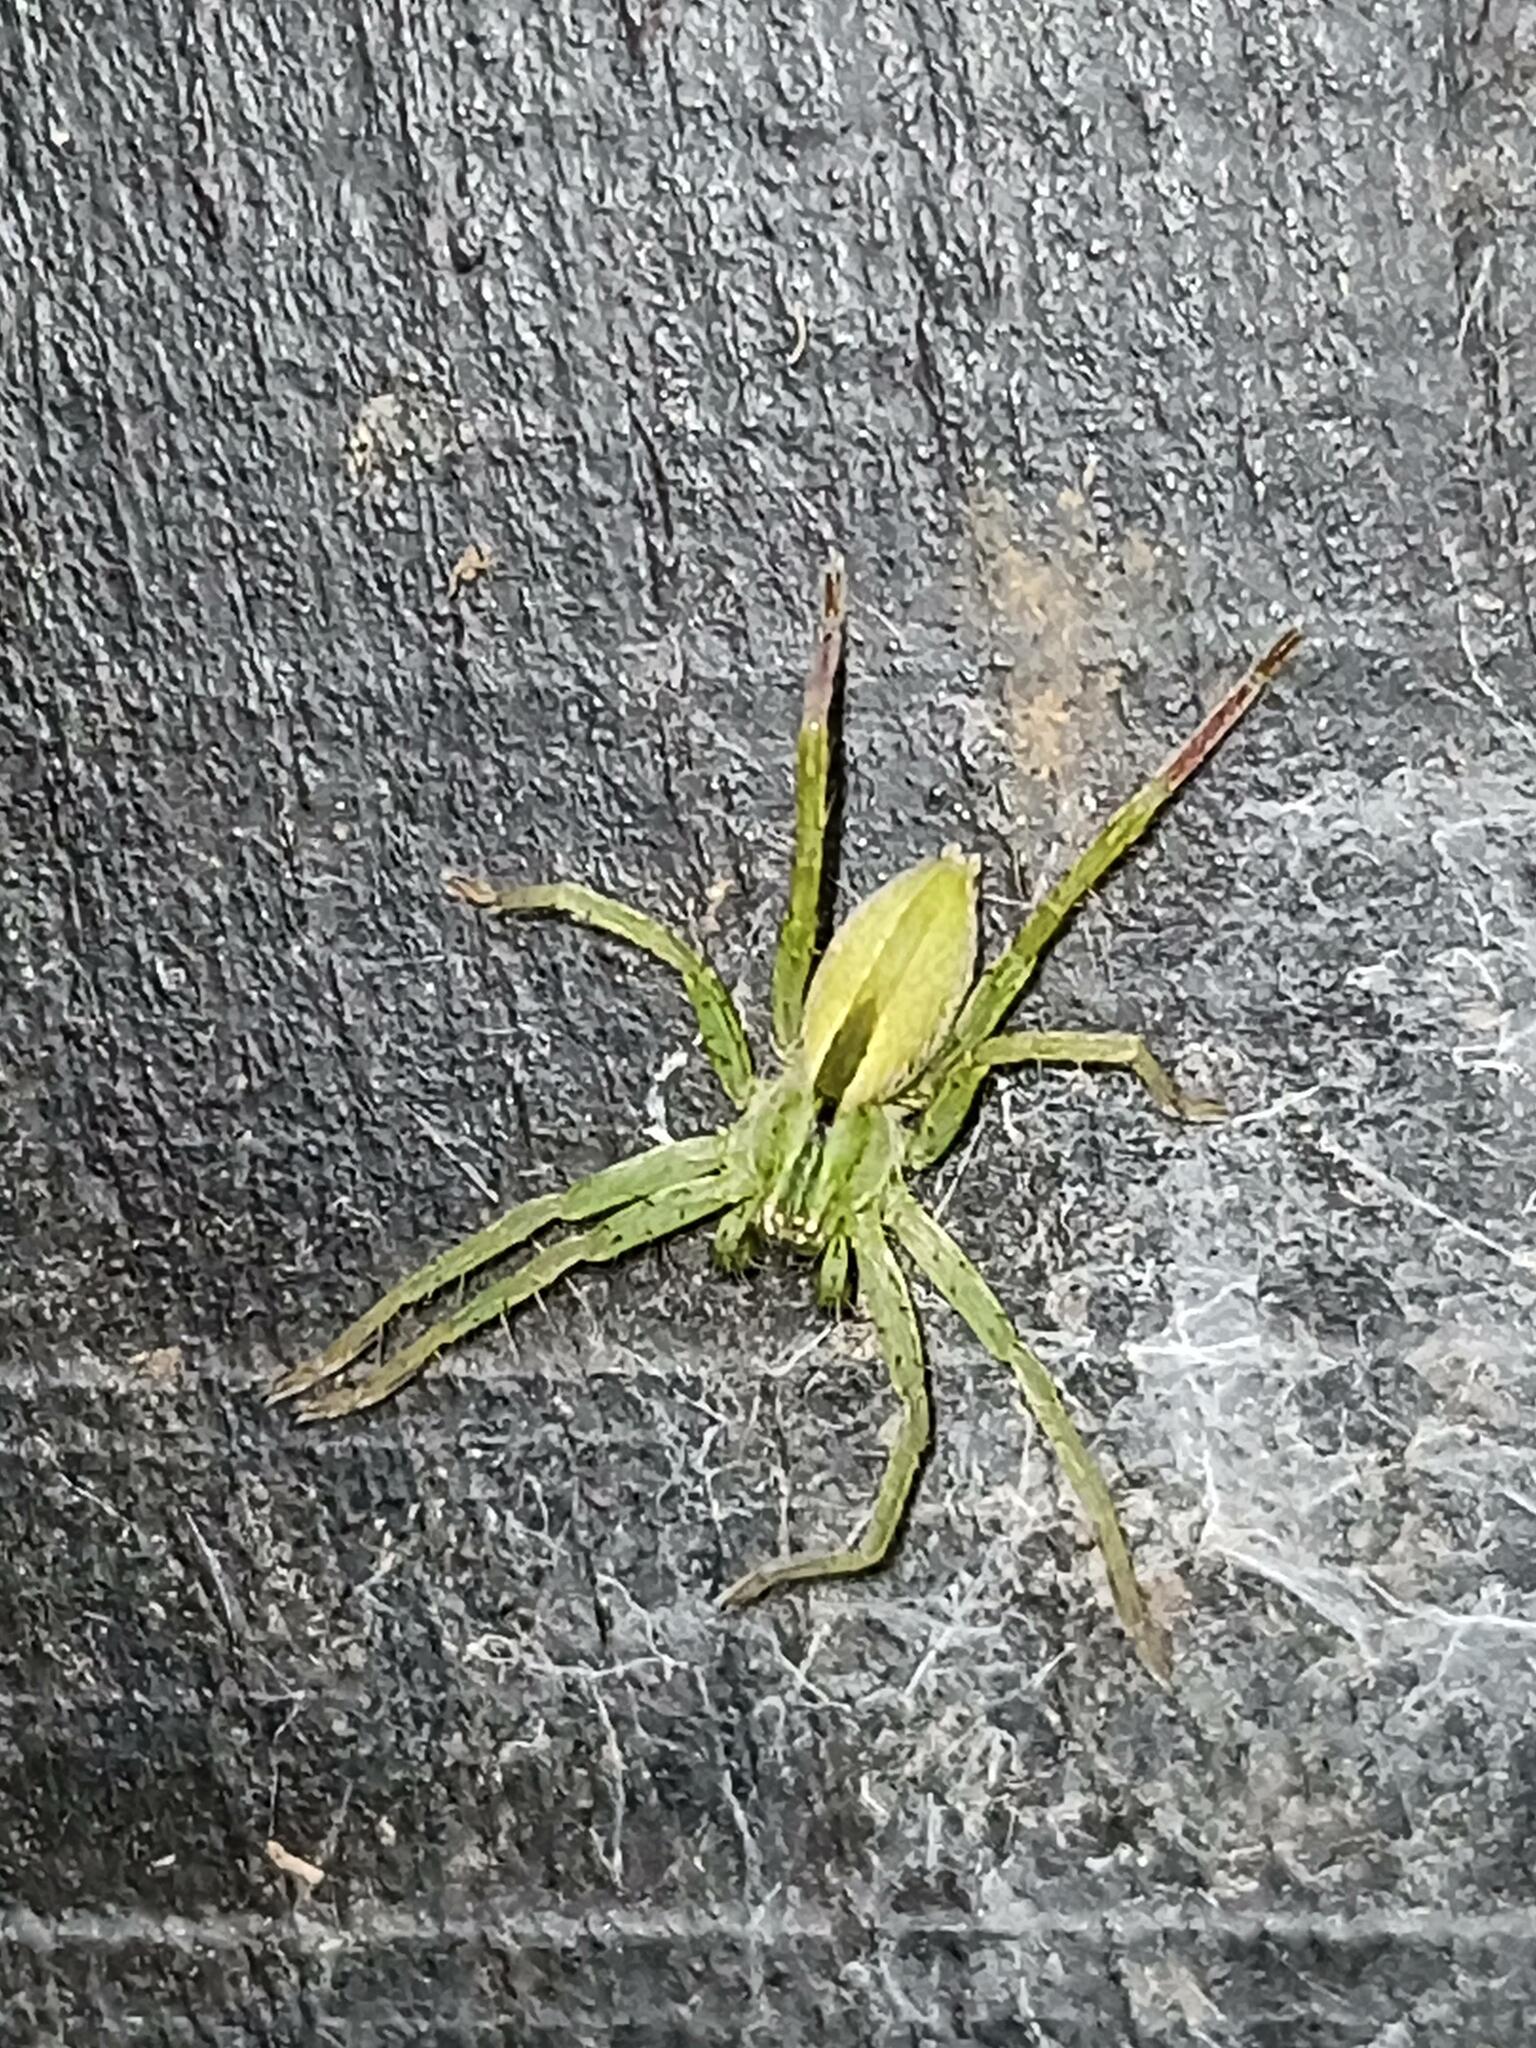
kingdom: Animalia
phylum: Arthropoda
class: Arachnida
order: Araneae
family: Sparassidae
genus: Micrommata
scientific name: Micrommata ligurina
